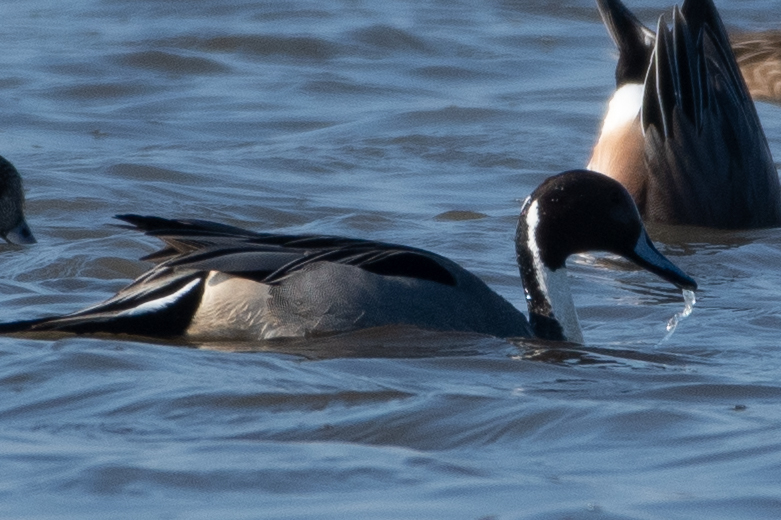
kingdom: Animalia
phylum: Chordata
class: Aves
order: Anseriformes
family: Anatidae
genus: Anas
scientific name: Anas acuta
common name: Northern pintail
